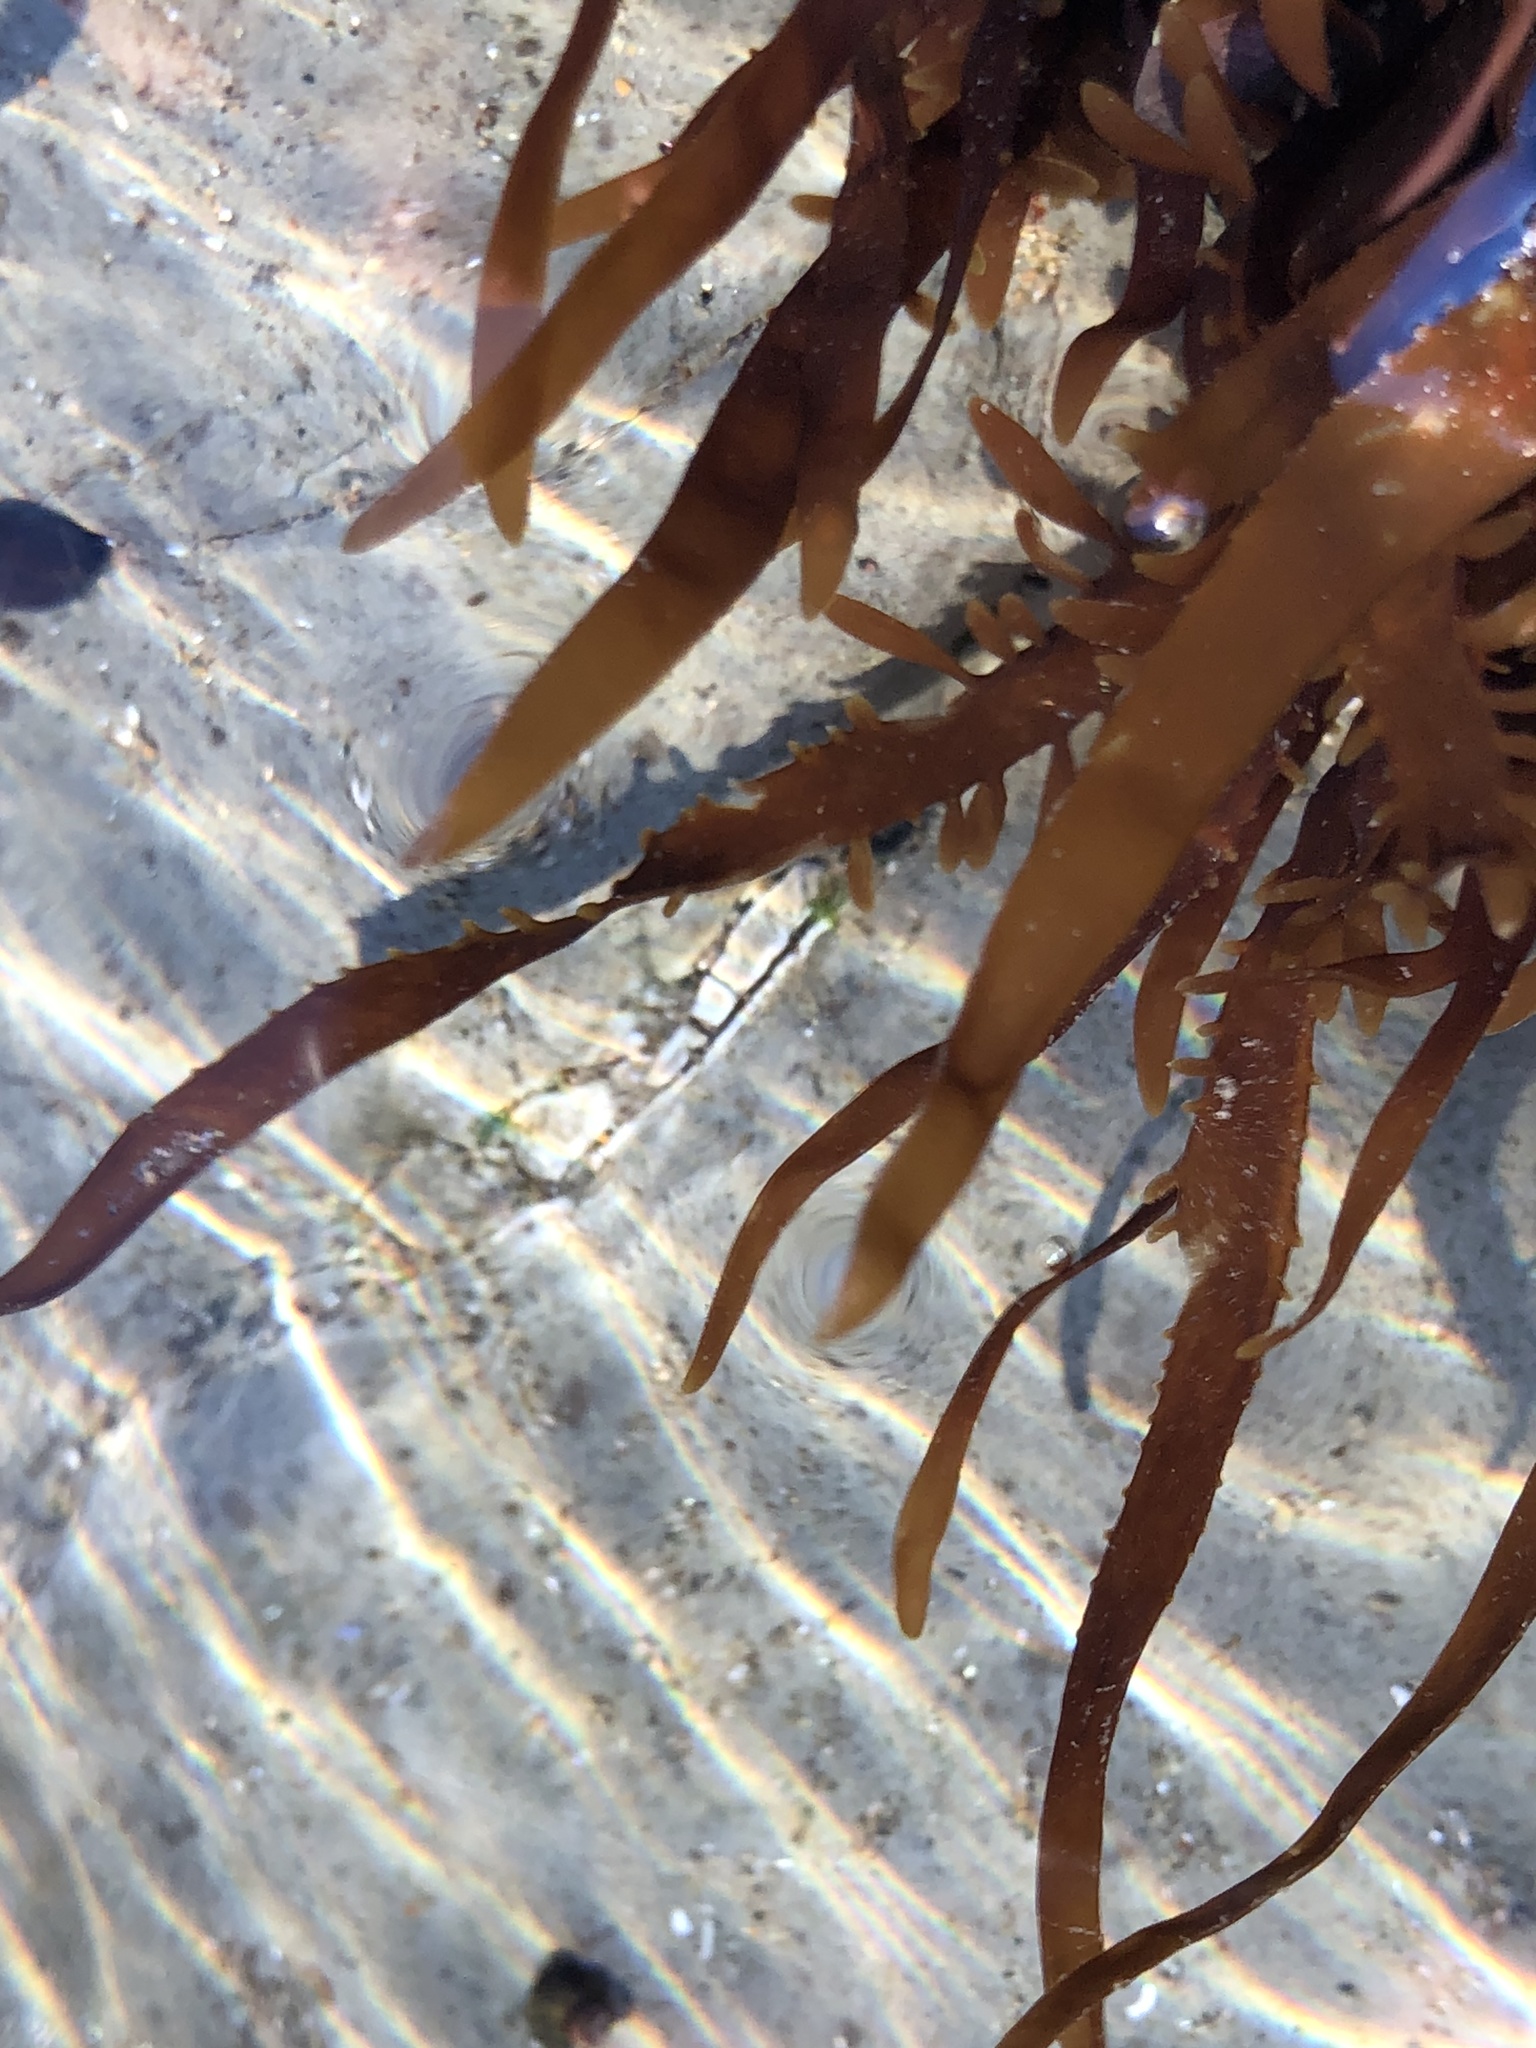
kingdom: Plantae
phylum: Rhodophyta
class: Florideophyceae
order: Halymeniales
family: Halymeniaceae
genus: Grateloupia
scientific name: Grateloupia Prionitis lanceolata
